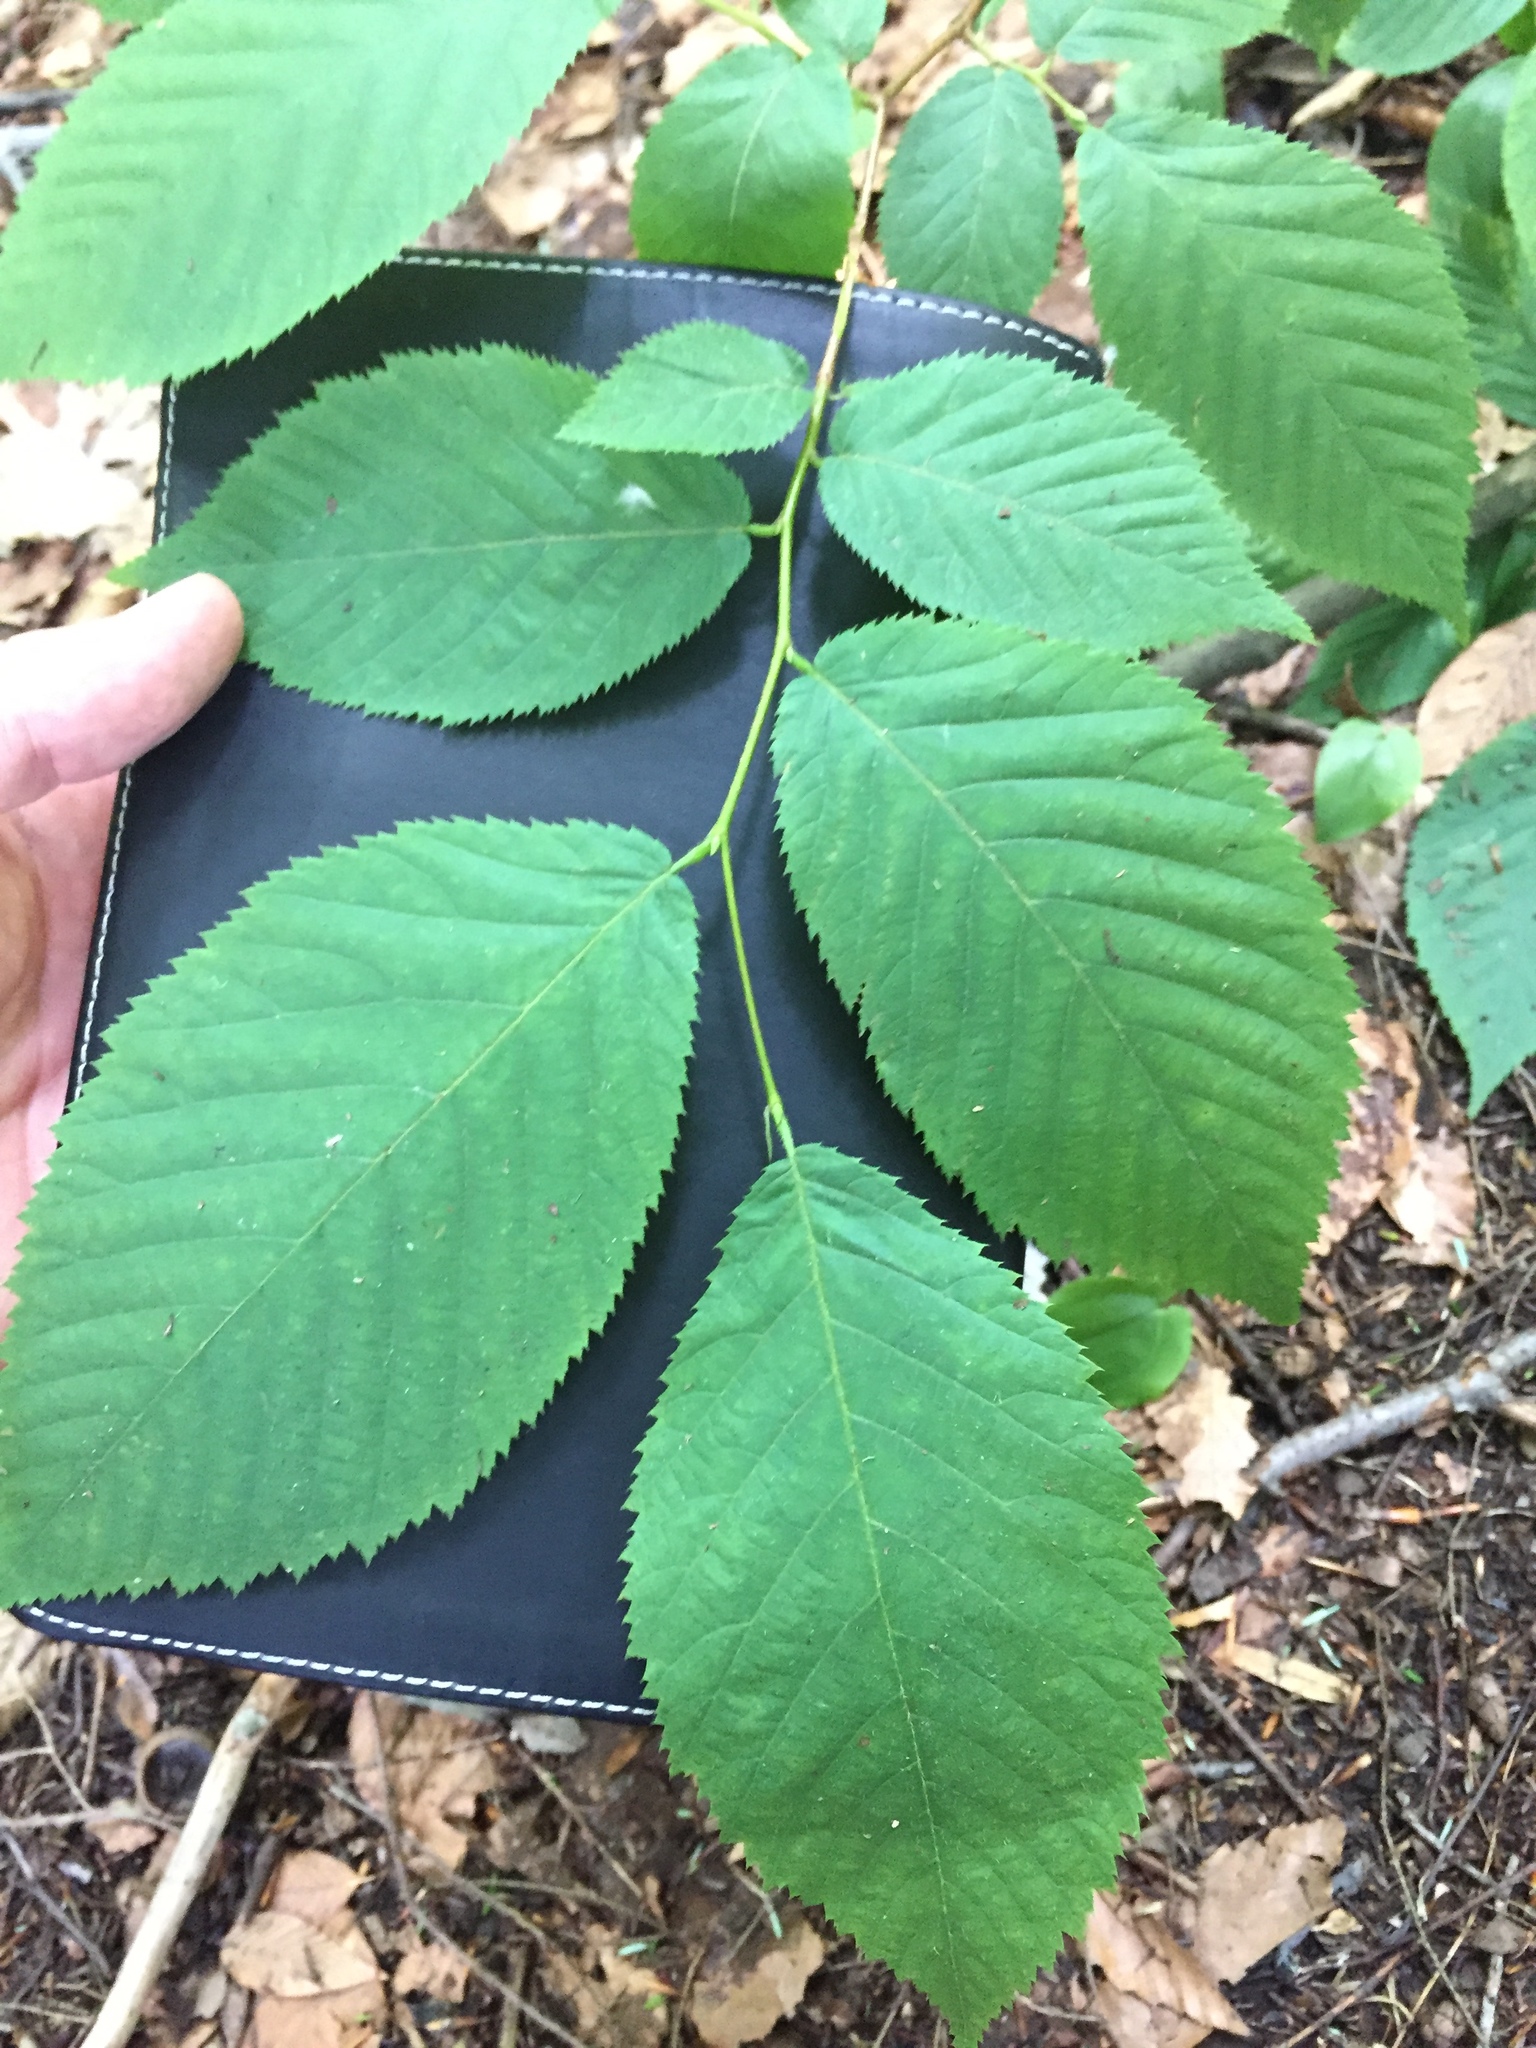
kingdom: Plantae
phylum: Tracheophyta
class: Magnoliopsida
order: Fagales
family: Betulaceae
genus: Ostrya
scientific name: Ostrya virginiana
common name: Ironwood
